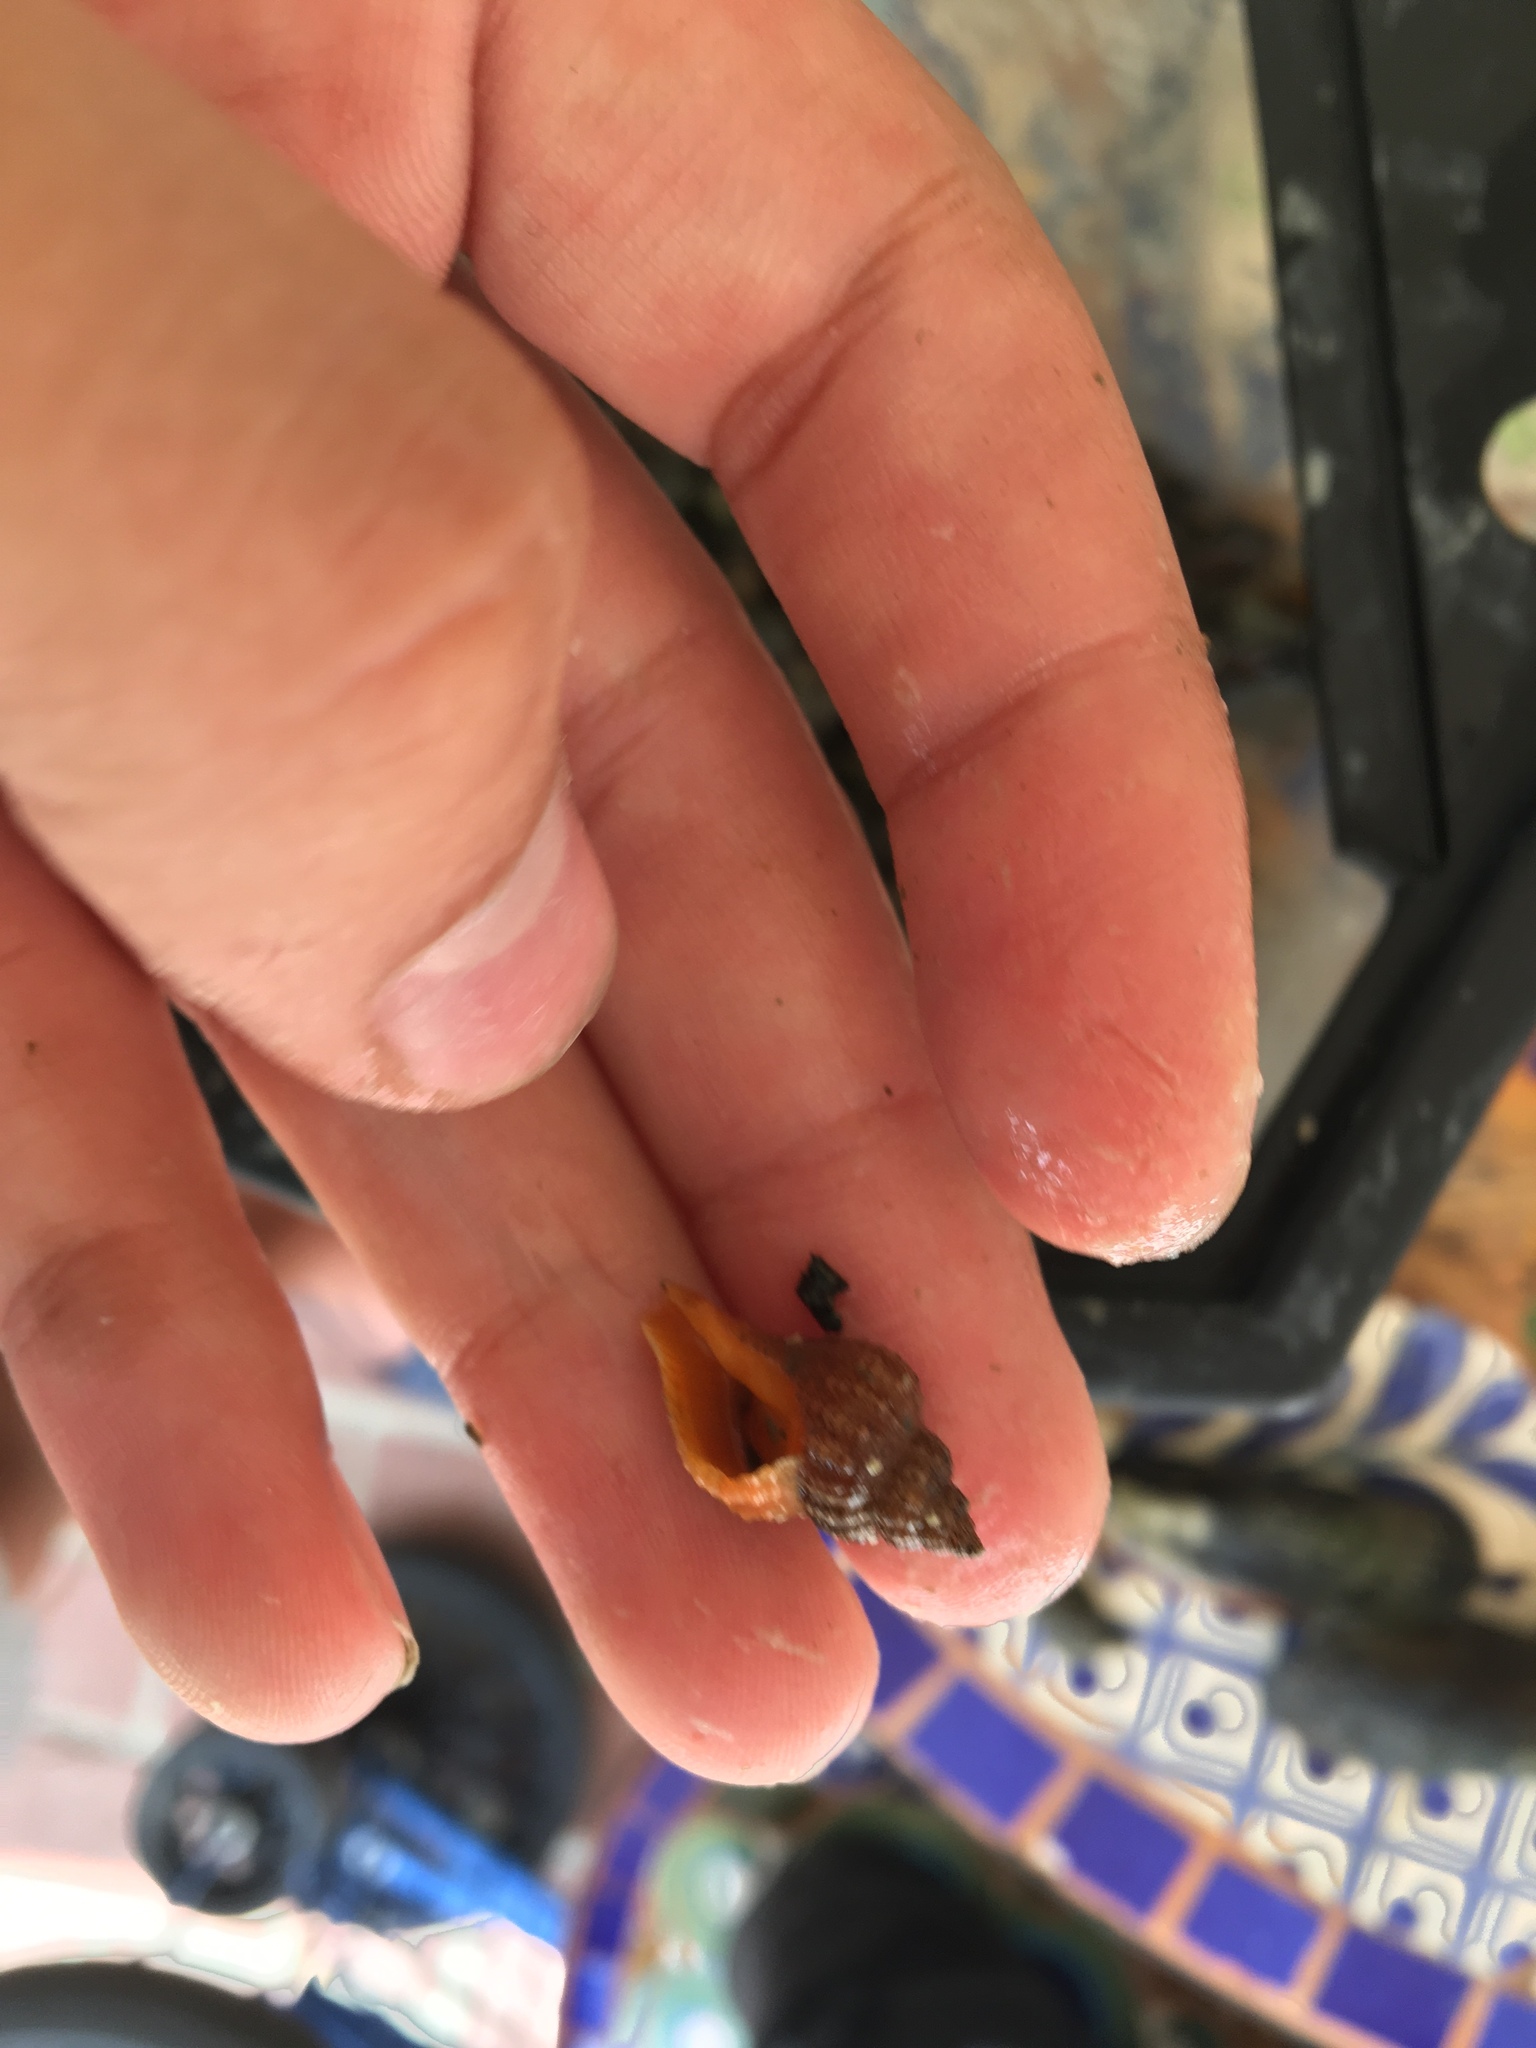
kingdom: Animalia
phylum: Mollusca
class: Gastropoda
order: Neogastropoda
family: Muricidae
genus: Urosalpinx
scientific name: Urosalpinx cinerea
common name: American sting winkle
